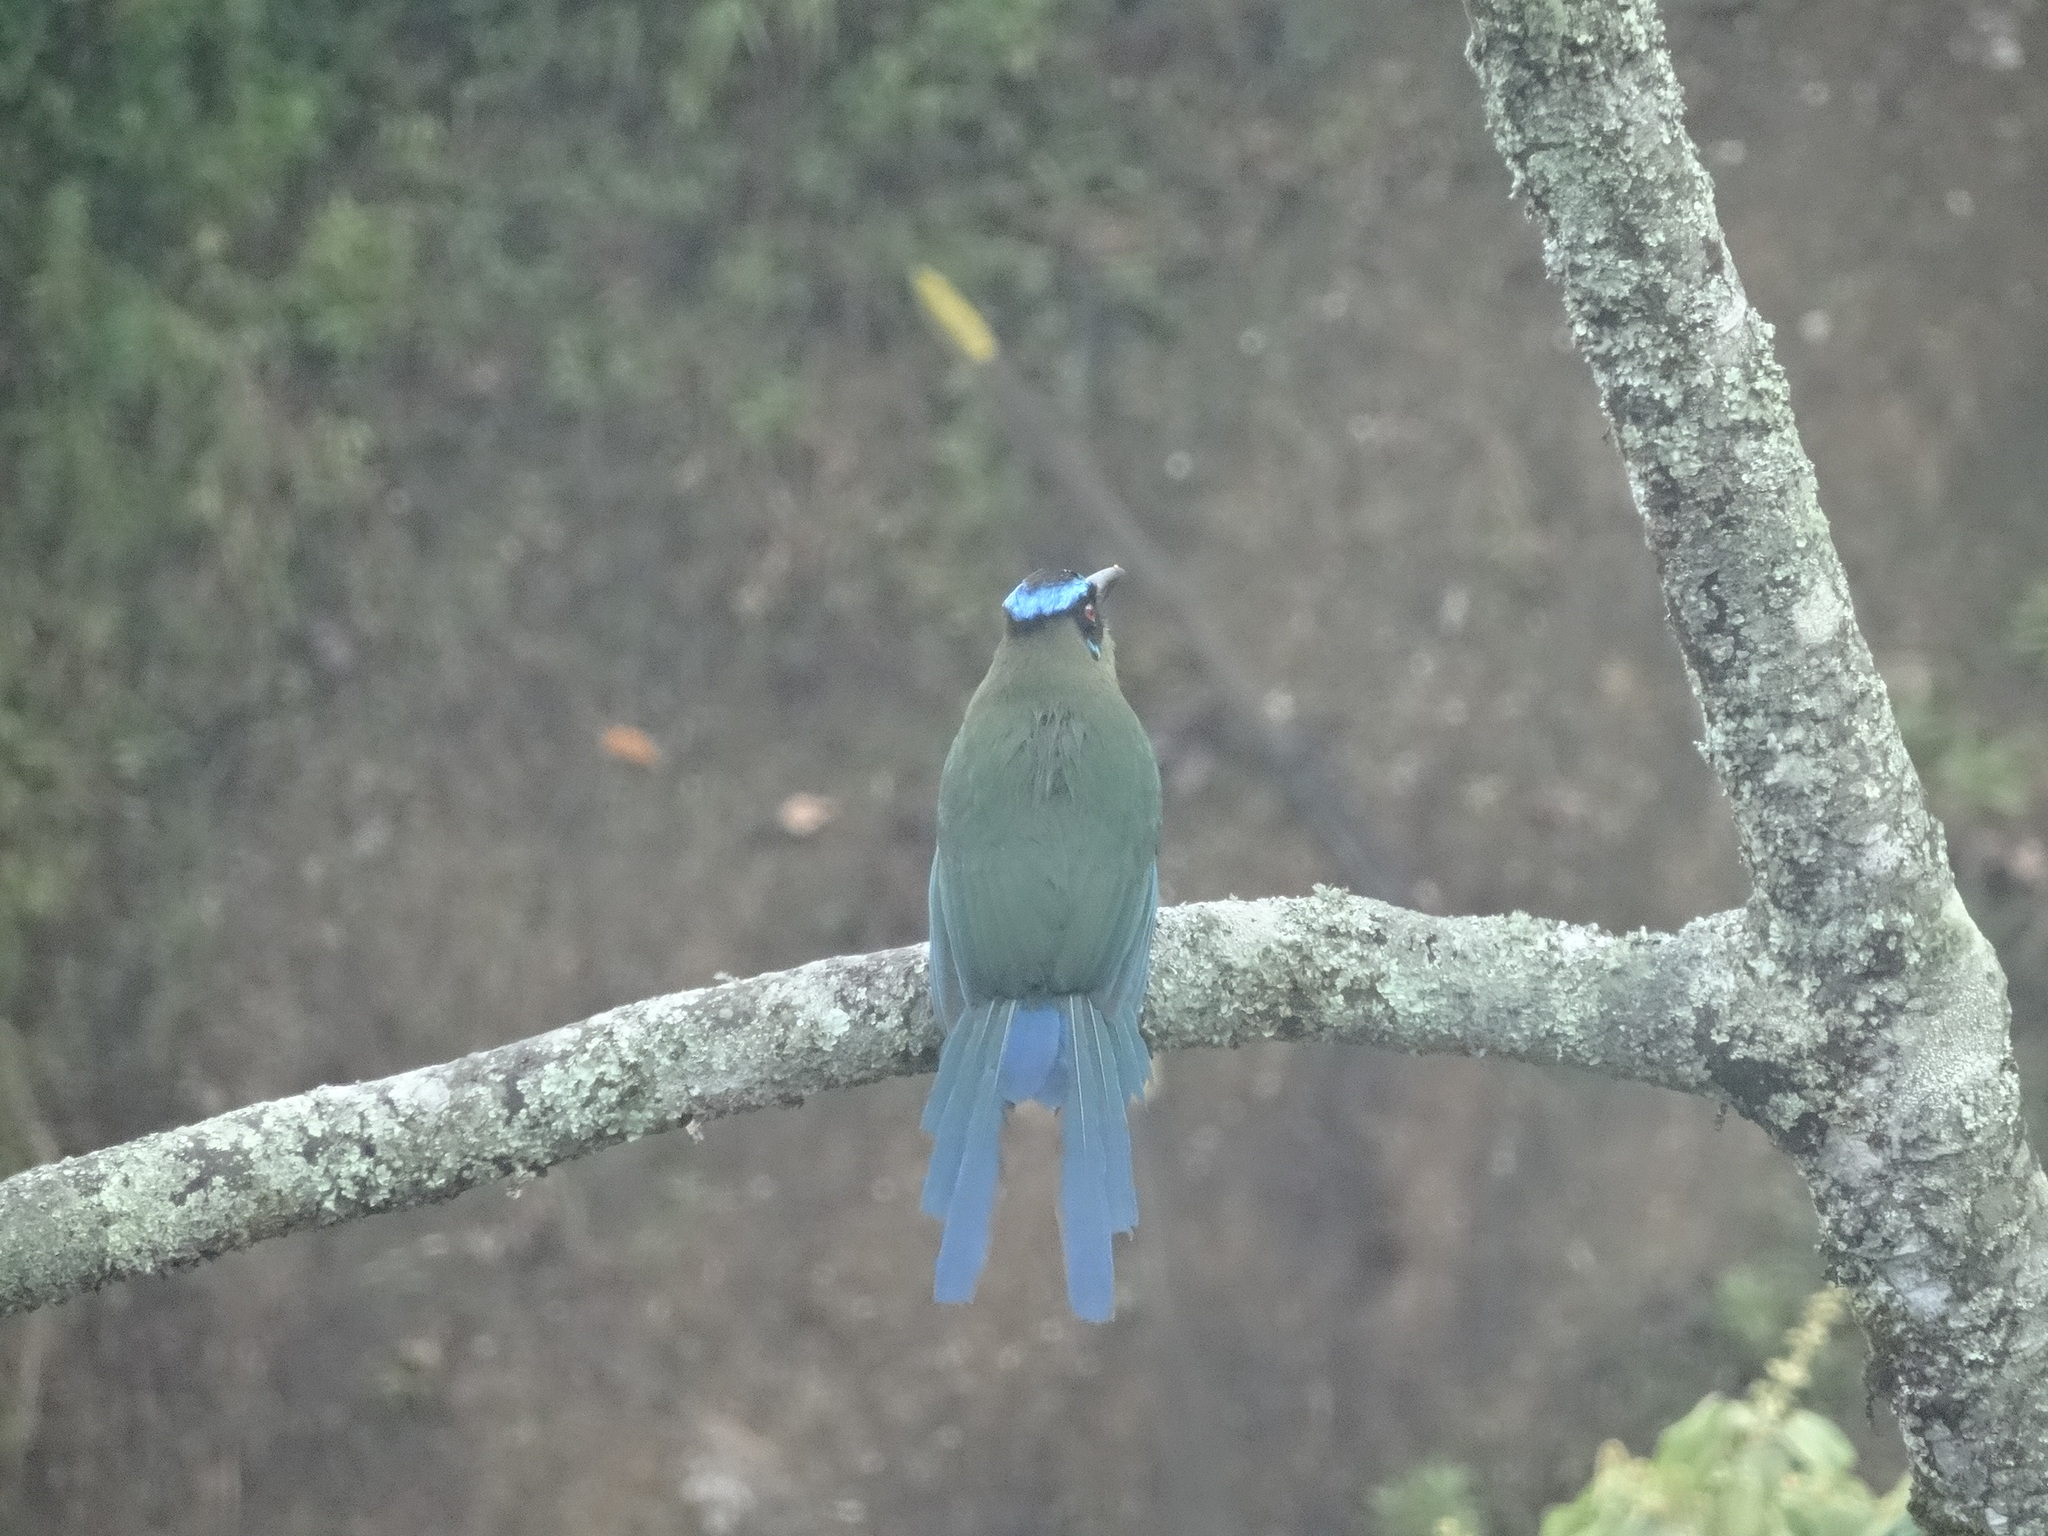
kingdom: Animalia
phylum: Chordata
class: Aves
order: Coraciiformes
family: Momotidae
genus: Momotus
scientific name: Momotus aequatorialis
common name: Andean motmot
